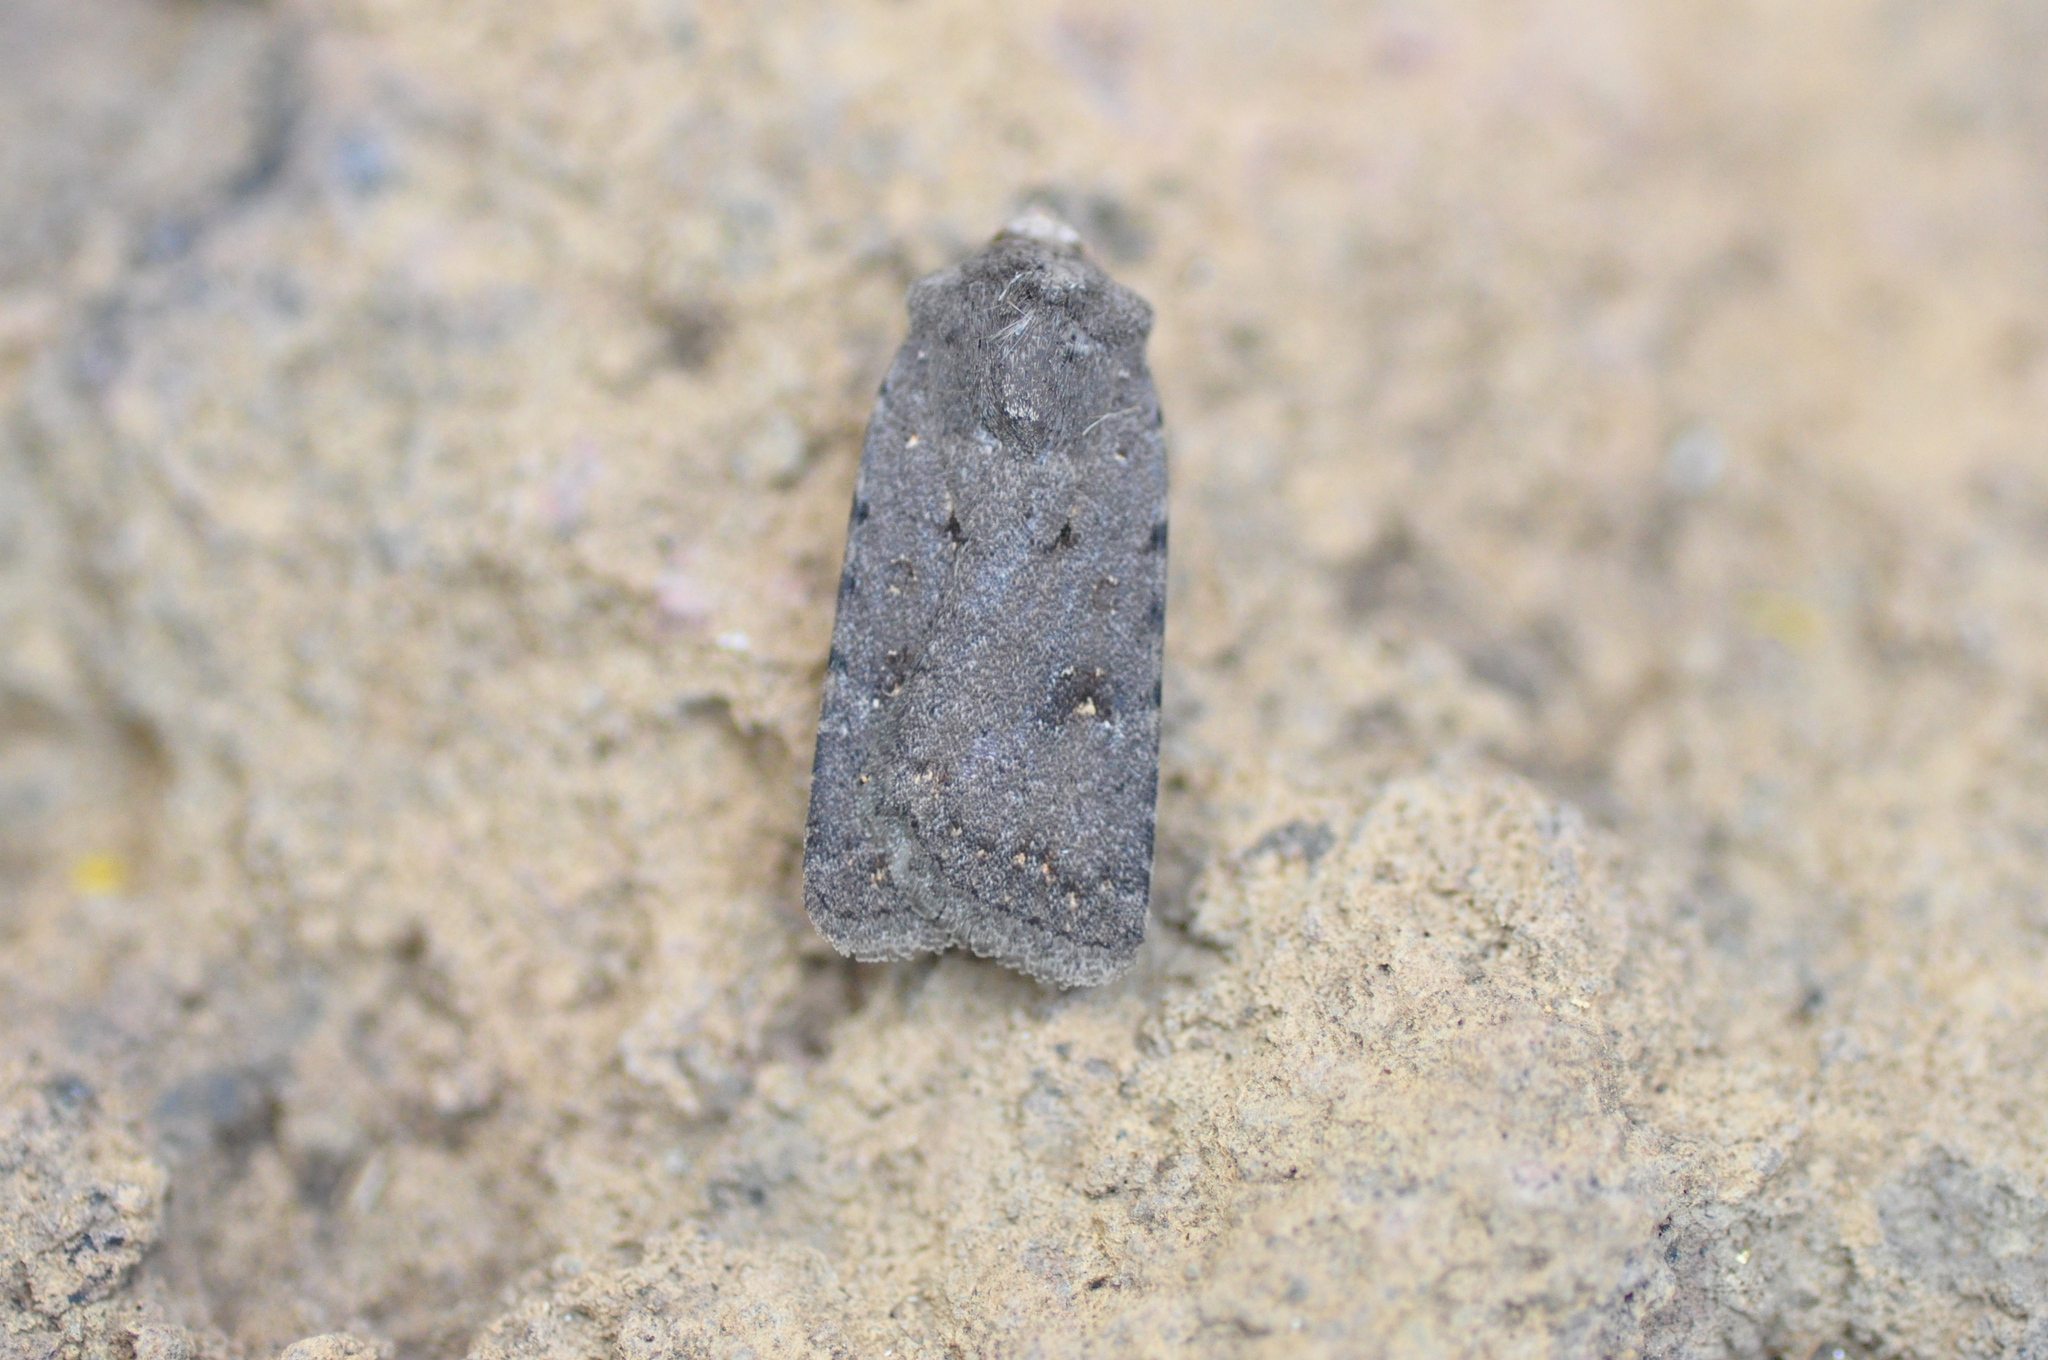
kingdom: Animalia
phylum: Arthropoda
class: Insecta
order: Lepidoptera
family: Noctuidae
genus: Caradrina
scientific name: Caradrina rebeli
